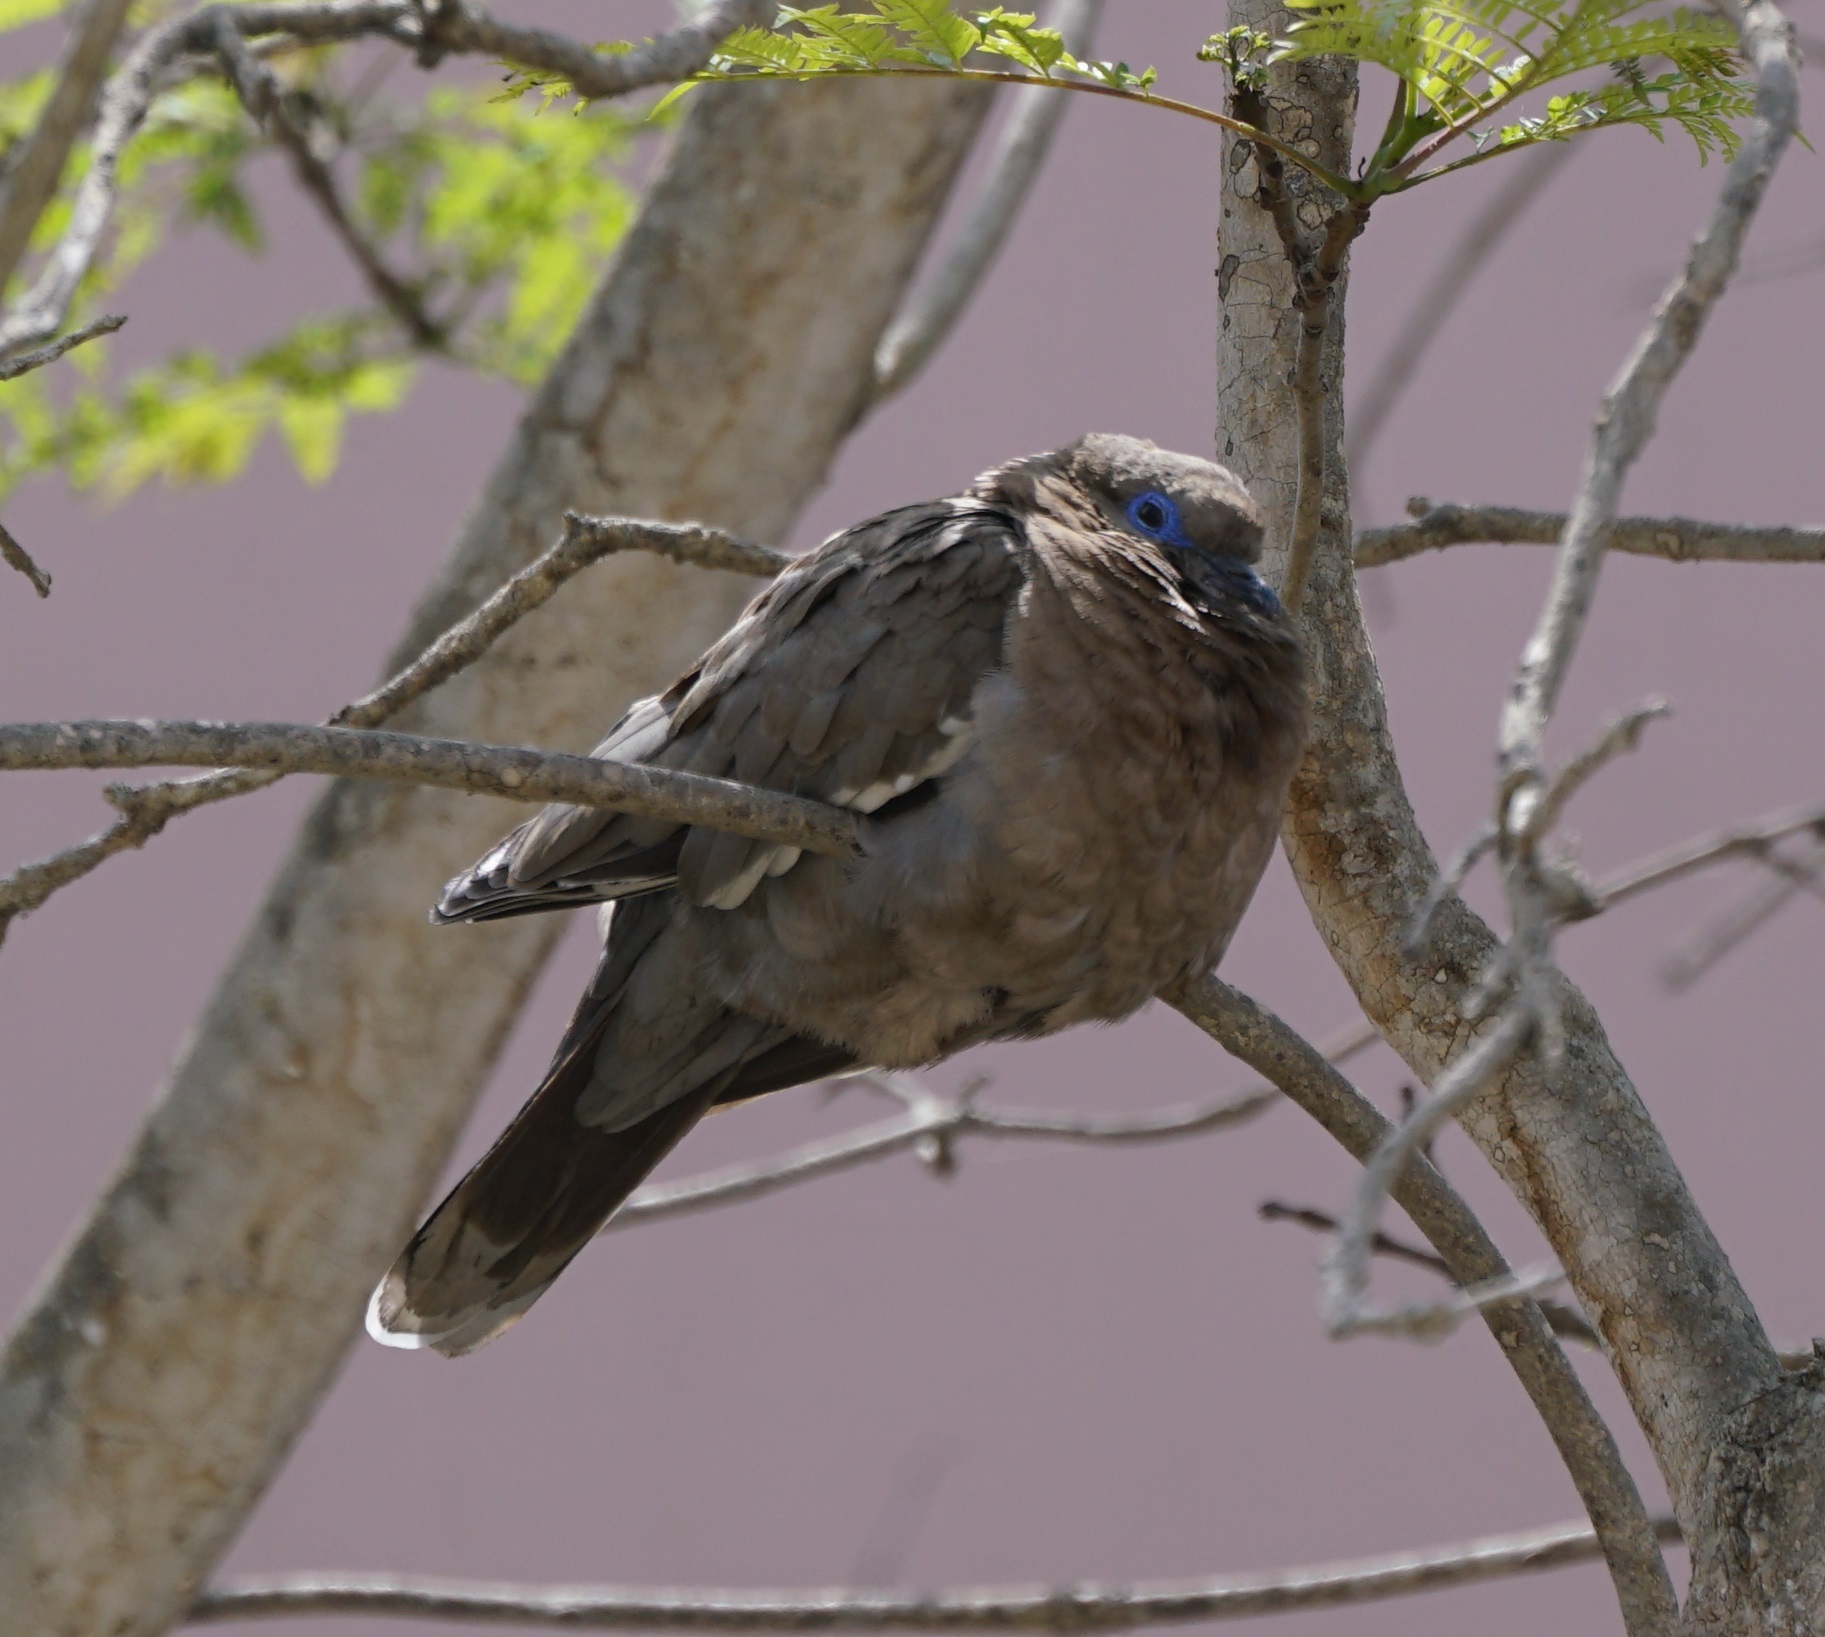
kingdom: Animalia
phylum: Chordata
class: Aves
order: Columbiformes
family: Columbidae
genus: Zenaida
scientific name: Zenaida meloda
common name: West peruvian dove
